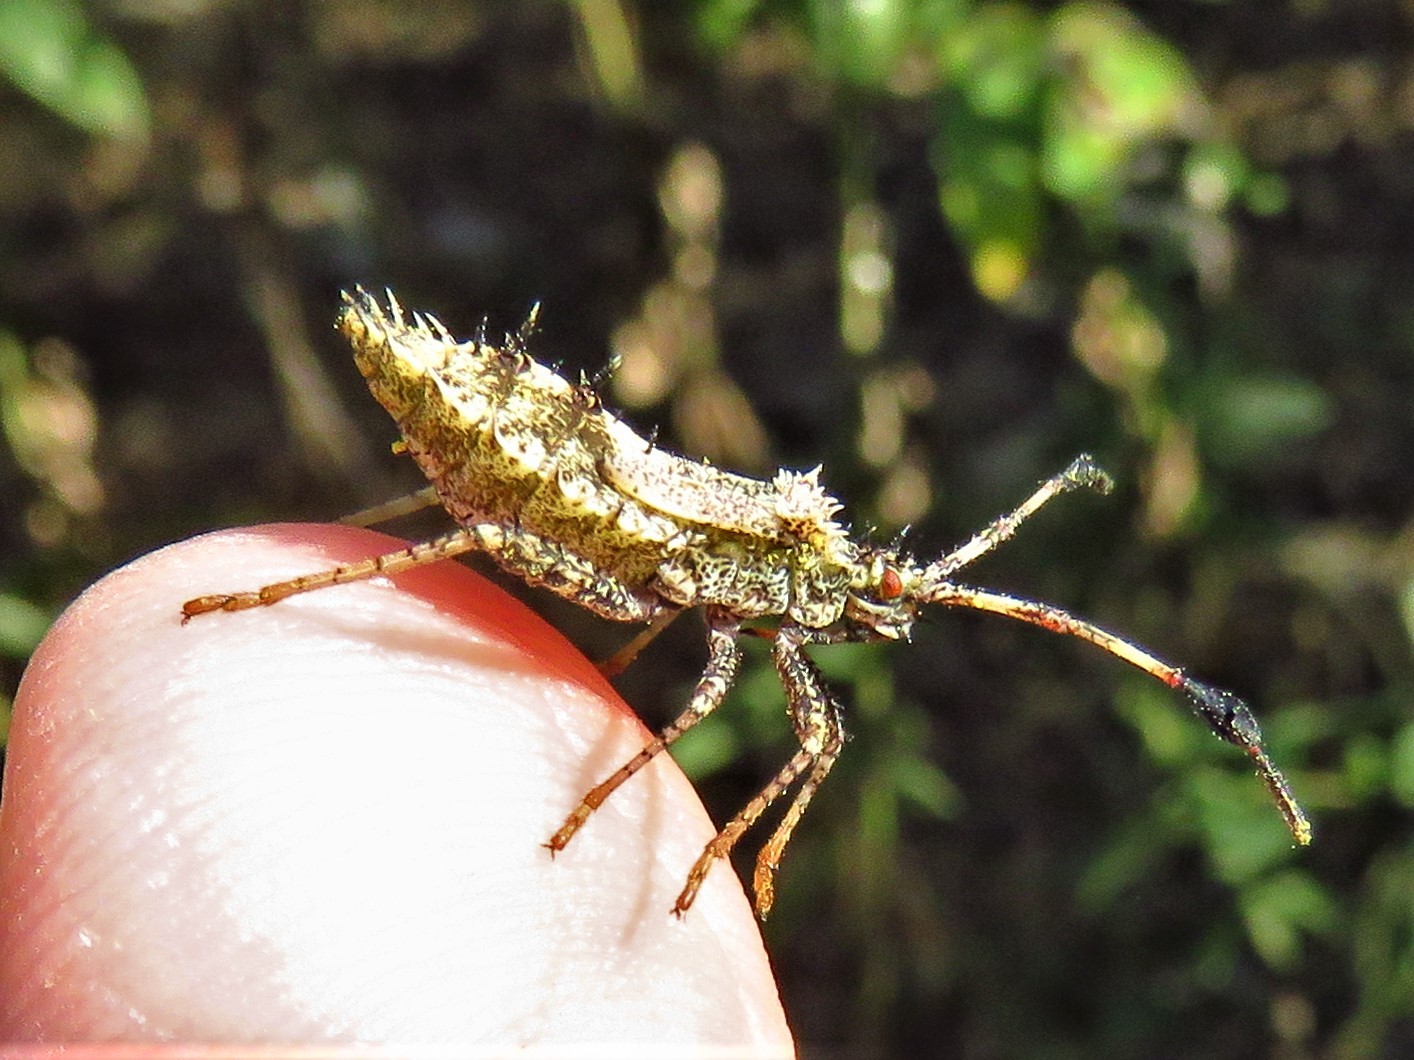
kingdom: Animalia
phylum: Arthropoda
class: Insecta
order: Hemiptera
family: Coreidae
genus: Euthochtha
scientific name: Euthochtha galeator
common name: Helmeted squash bug
